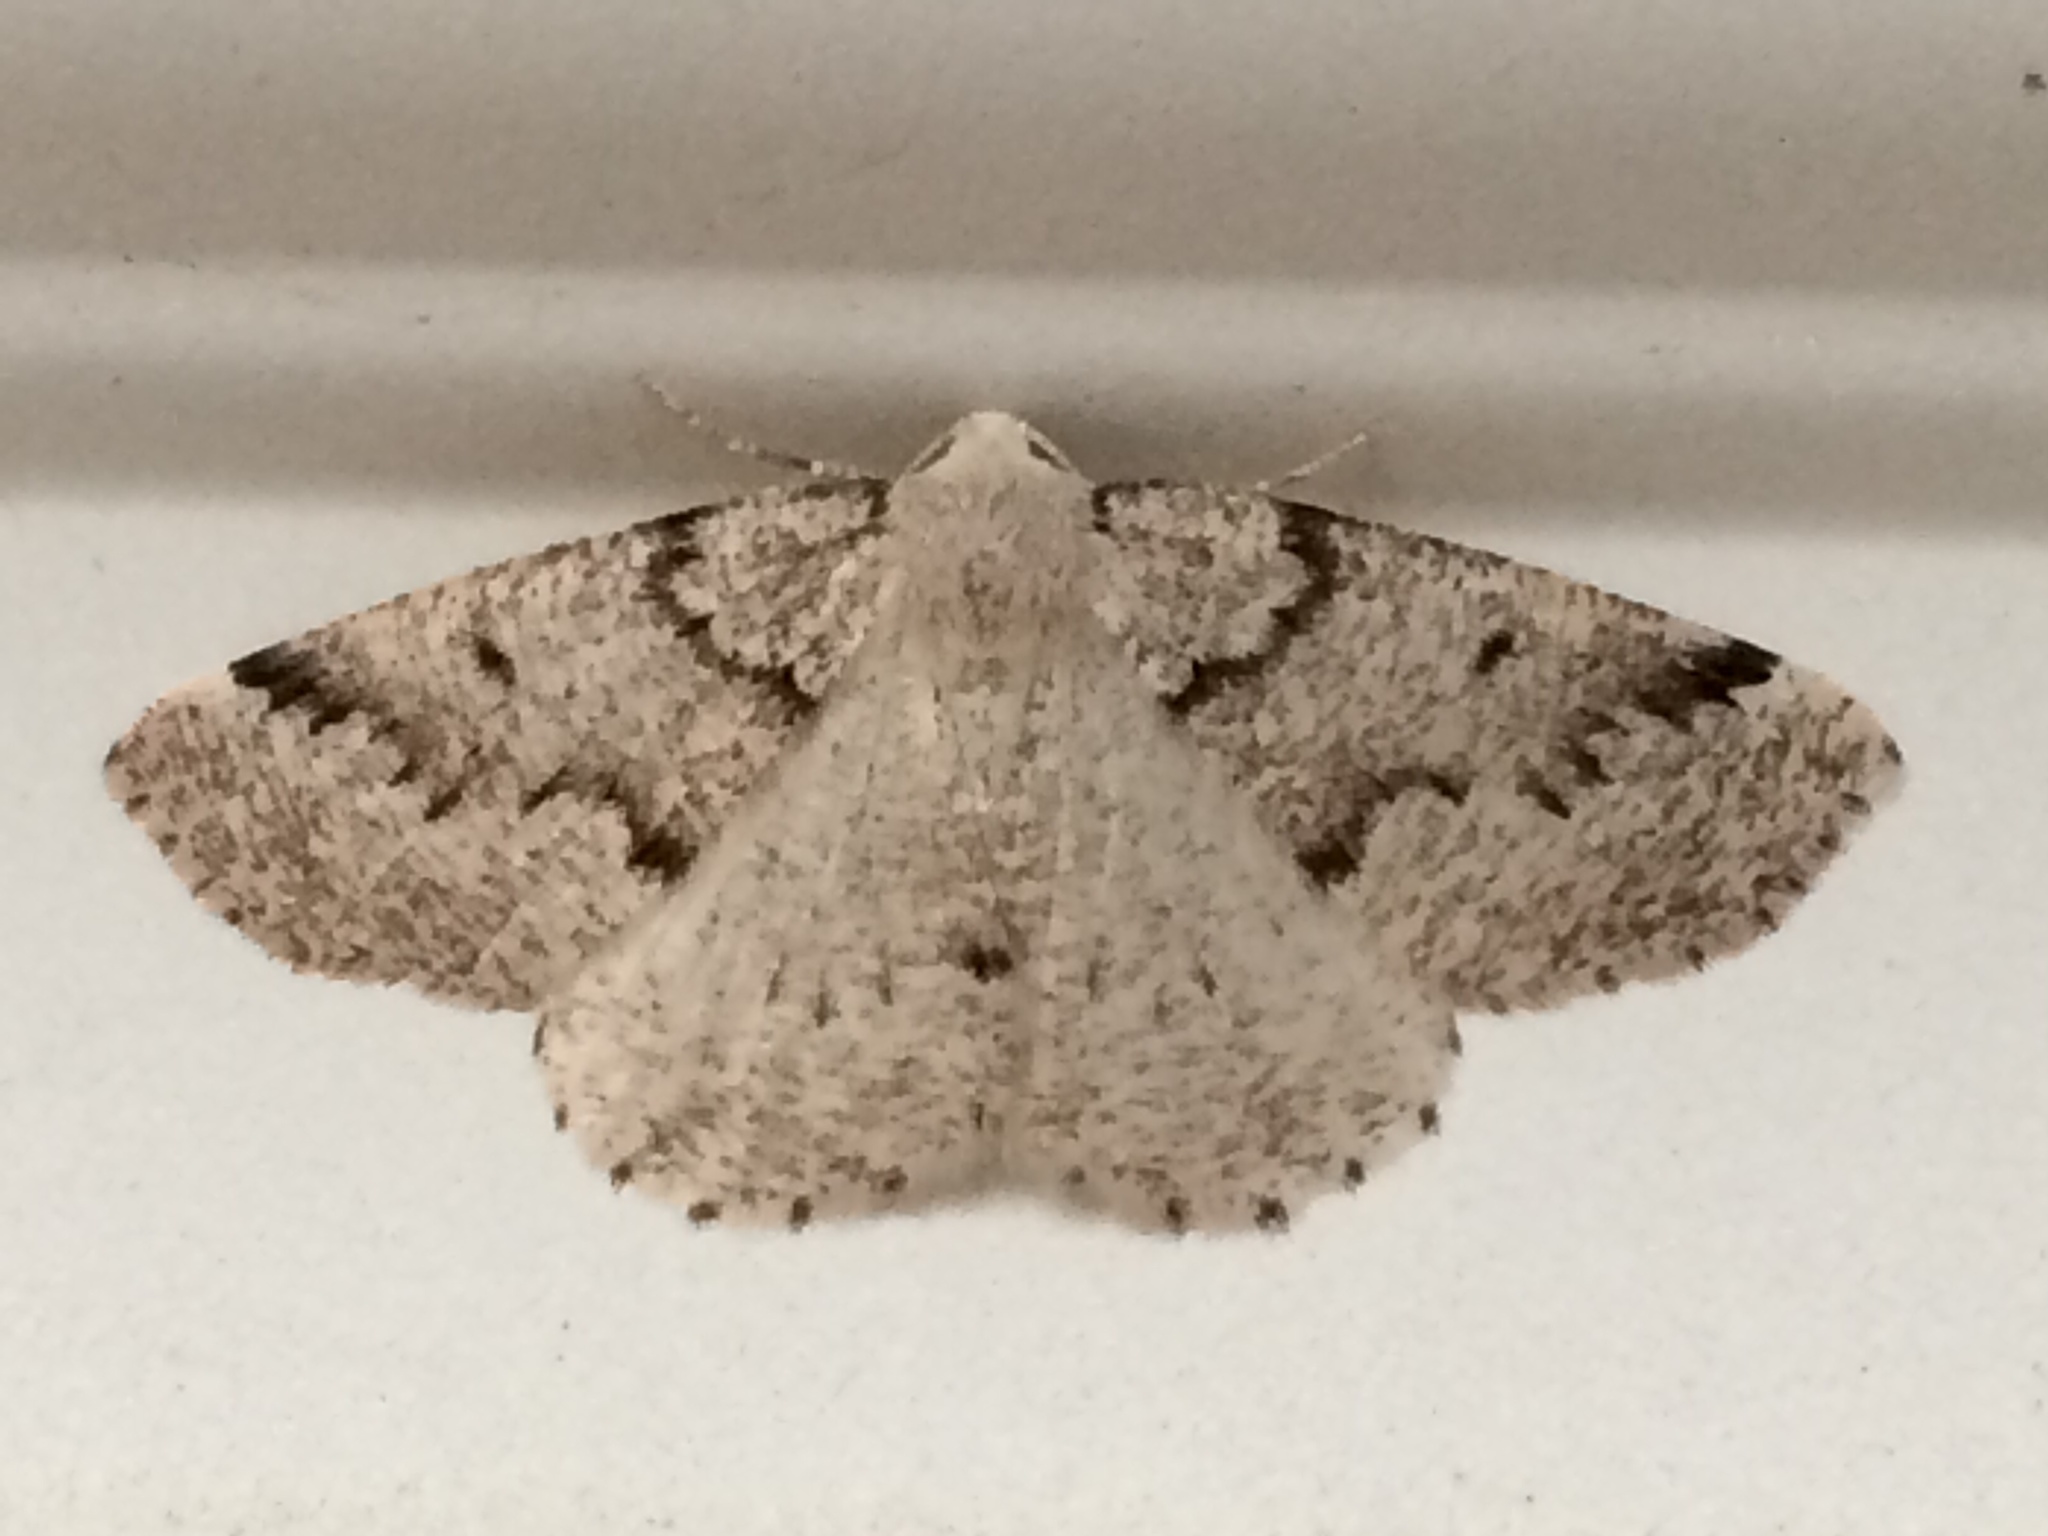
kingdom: Animalia
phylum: Arthropoda
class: Insecta
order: Lepidoptera
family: Geometridae
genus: Sabulodes
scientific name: Sabulodes
